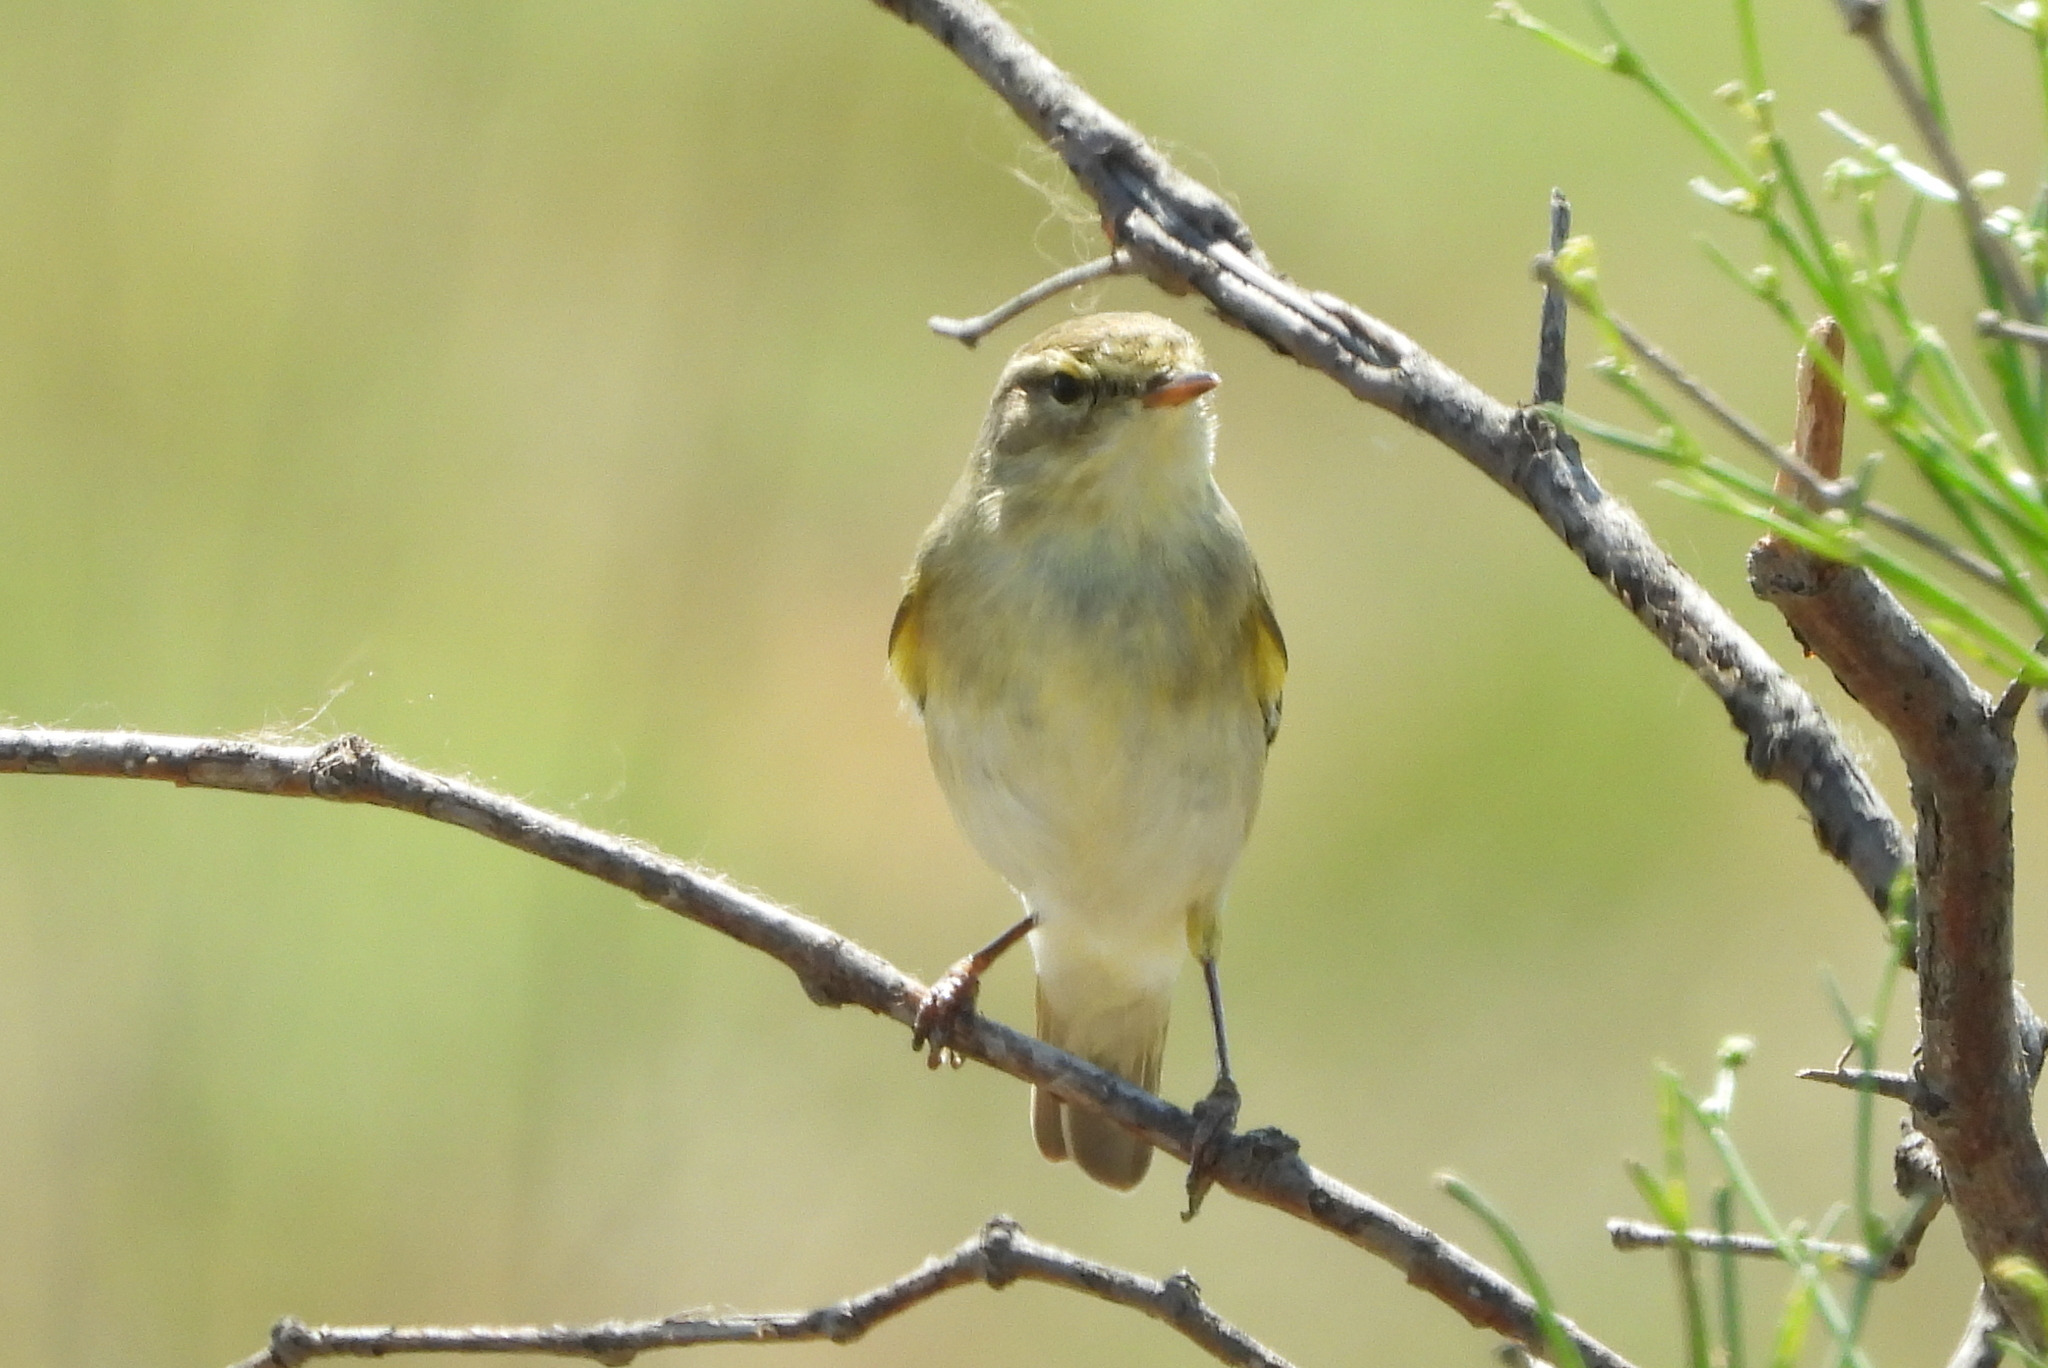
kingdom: Animalia
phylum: Chordata
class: Aves
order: Passeriformes
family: Phylloscopidae
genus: Phylloscopus
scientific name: Phylloscopus collybita
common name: Common chiffchaff
